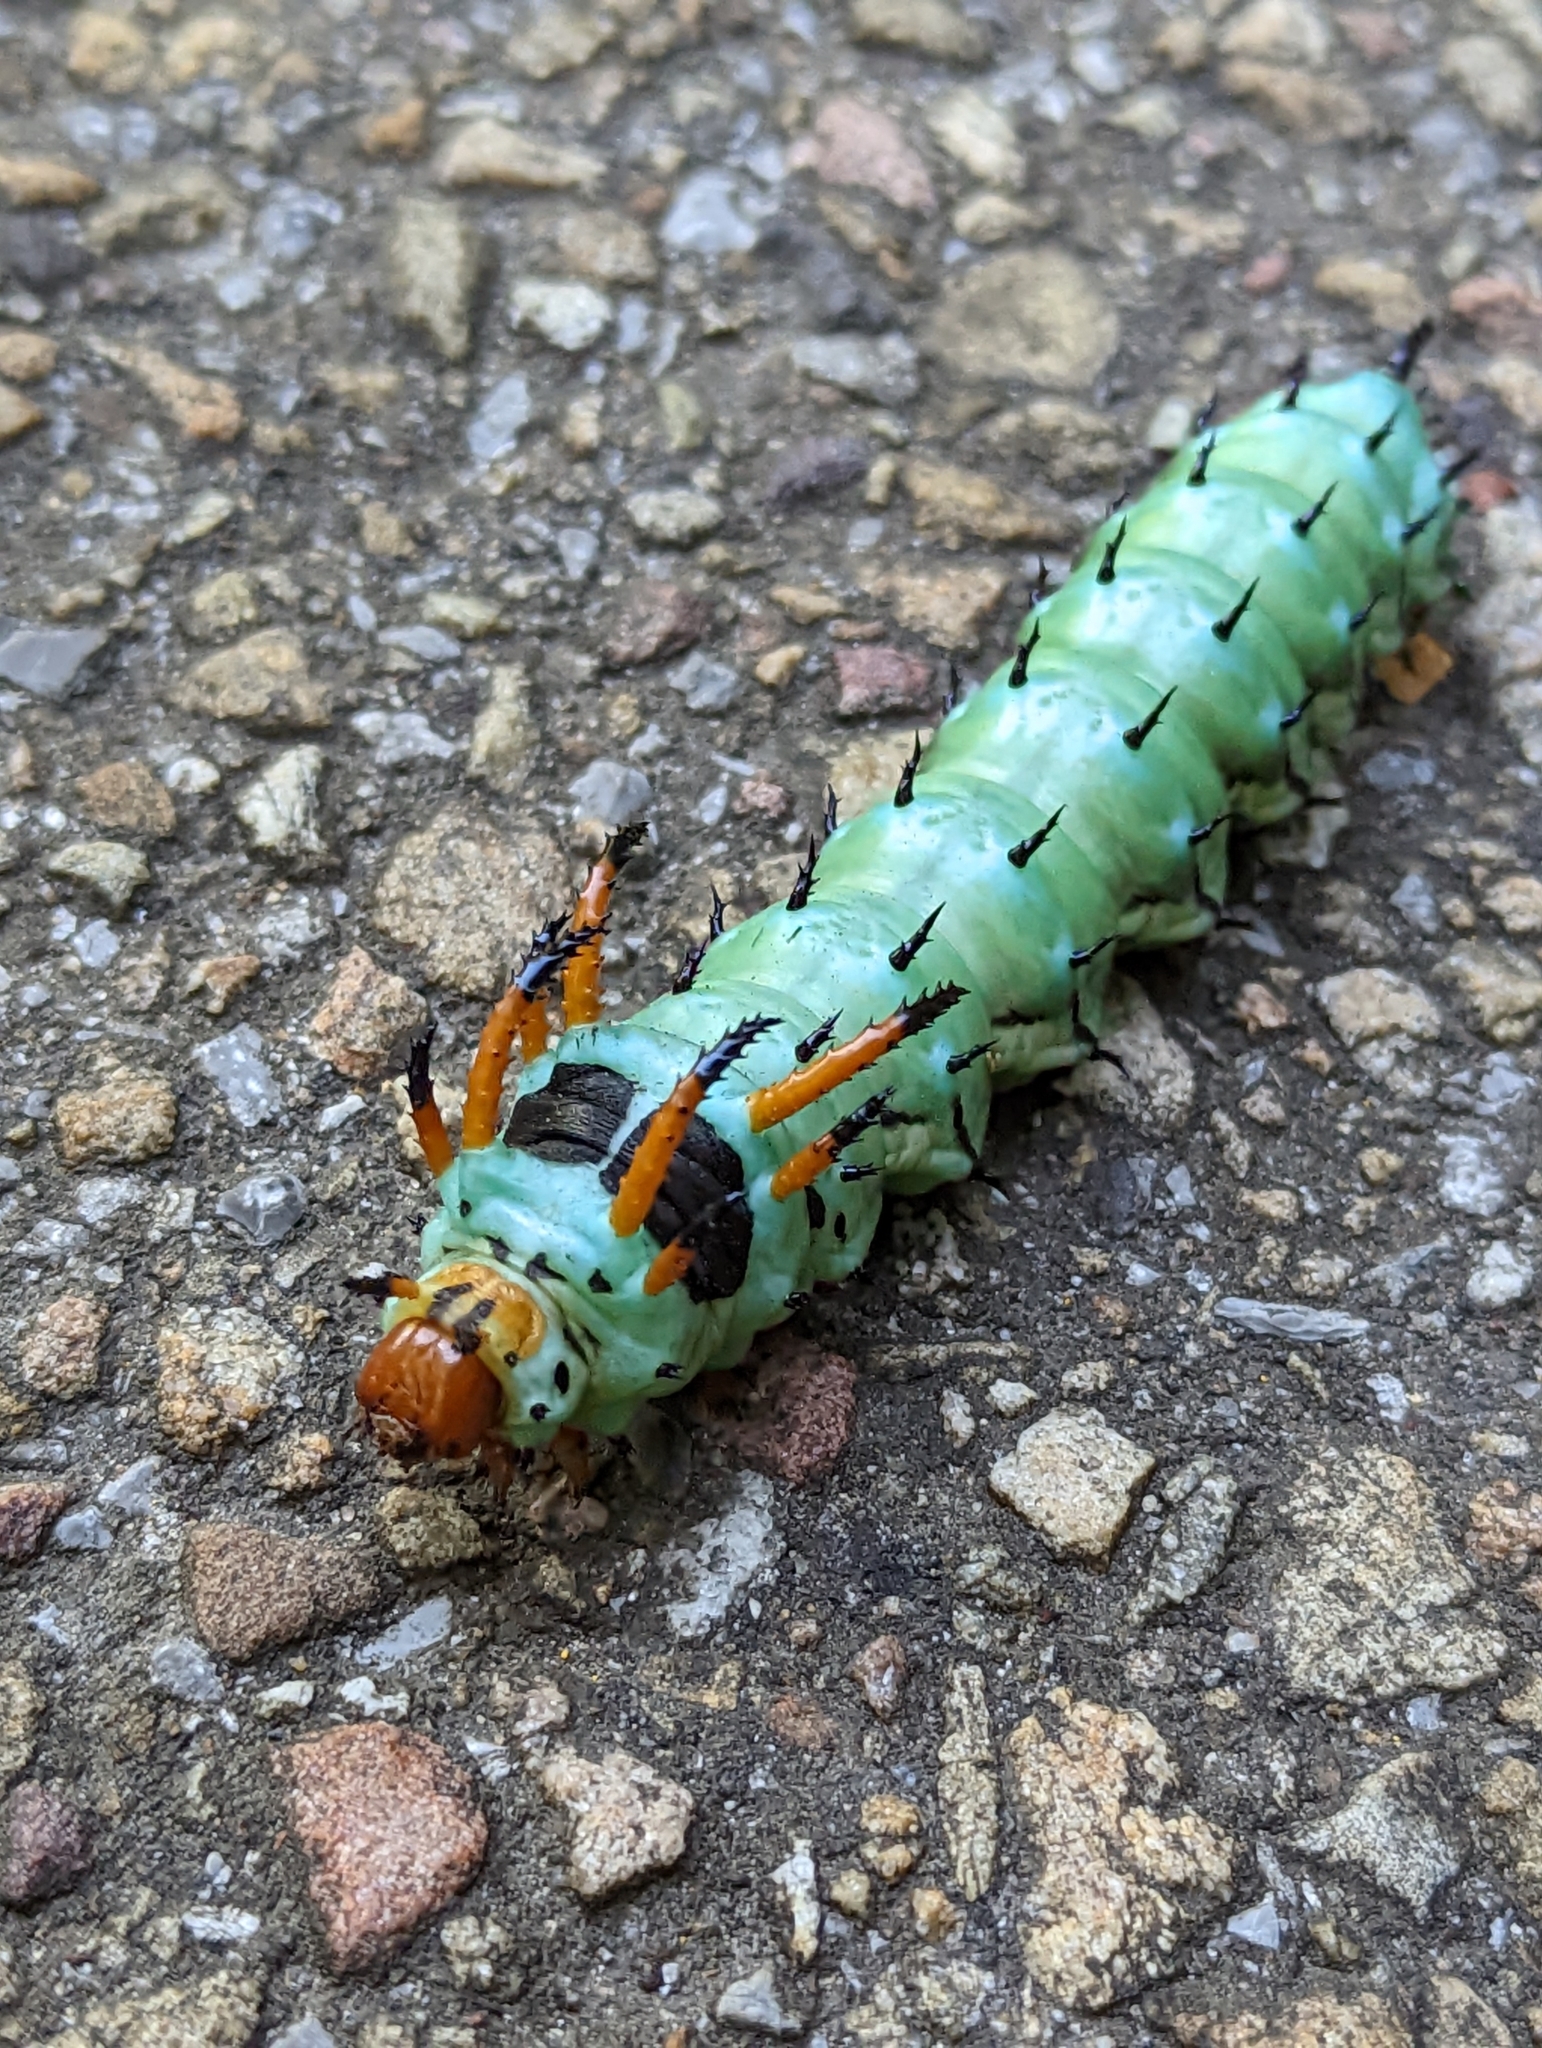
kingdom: Animalia
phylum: Arthropoda
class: Insecta
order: Lepidoptera
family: Saturniidae
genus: Citheronia
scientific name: Citheronia regalis
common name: Hickory horned devil
